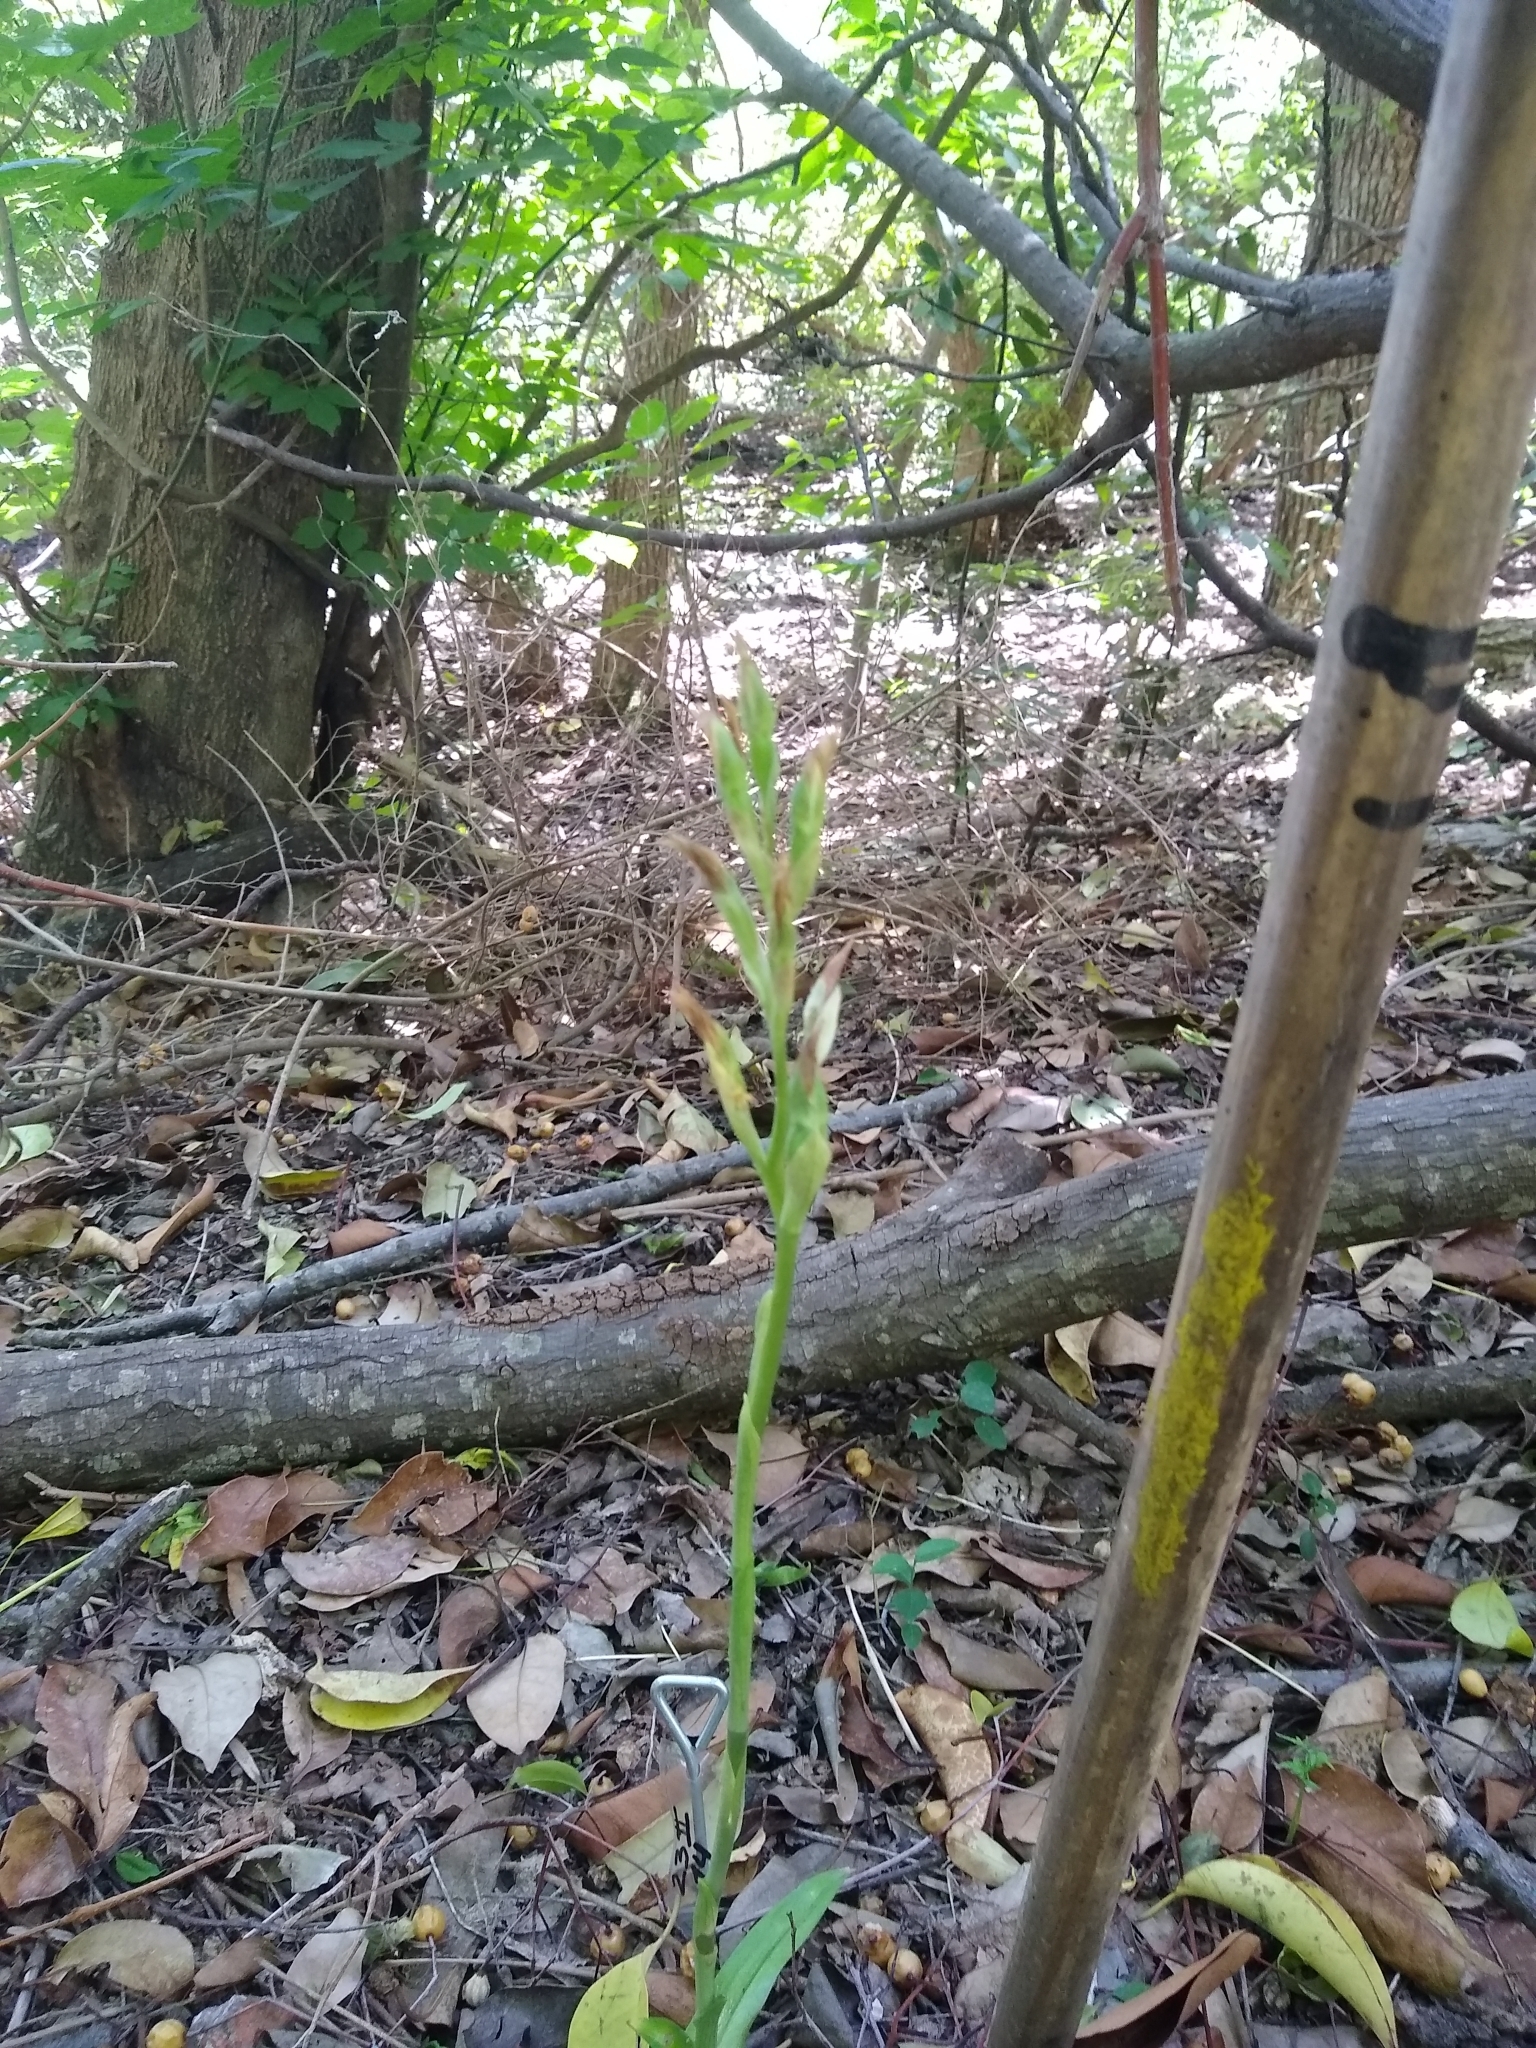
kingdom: Plantae
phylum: Tracheophyta
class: Liliopsida
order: Asparagales
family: Orchidaceae
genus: Chloraea
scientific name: Chloraea membranacea
